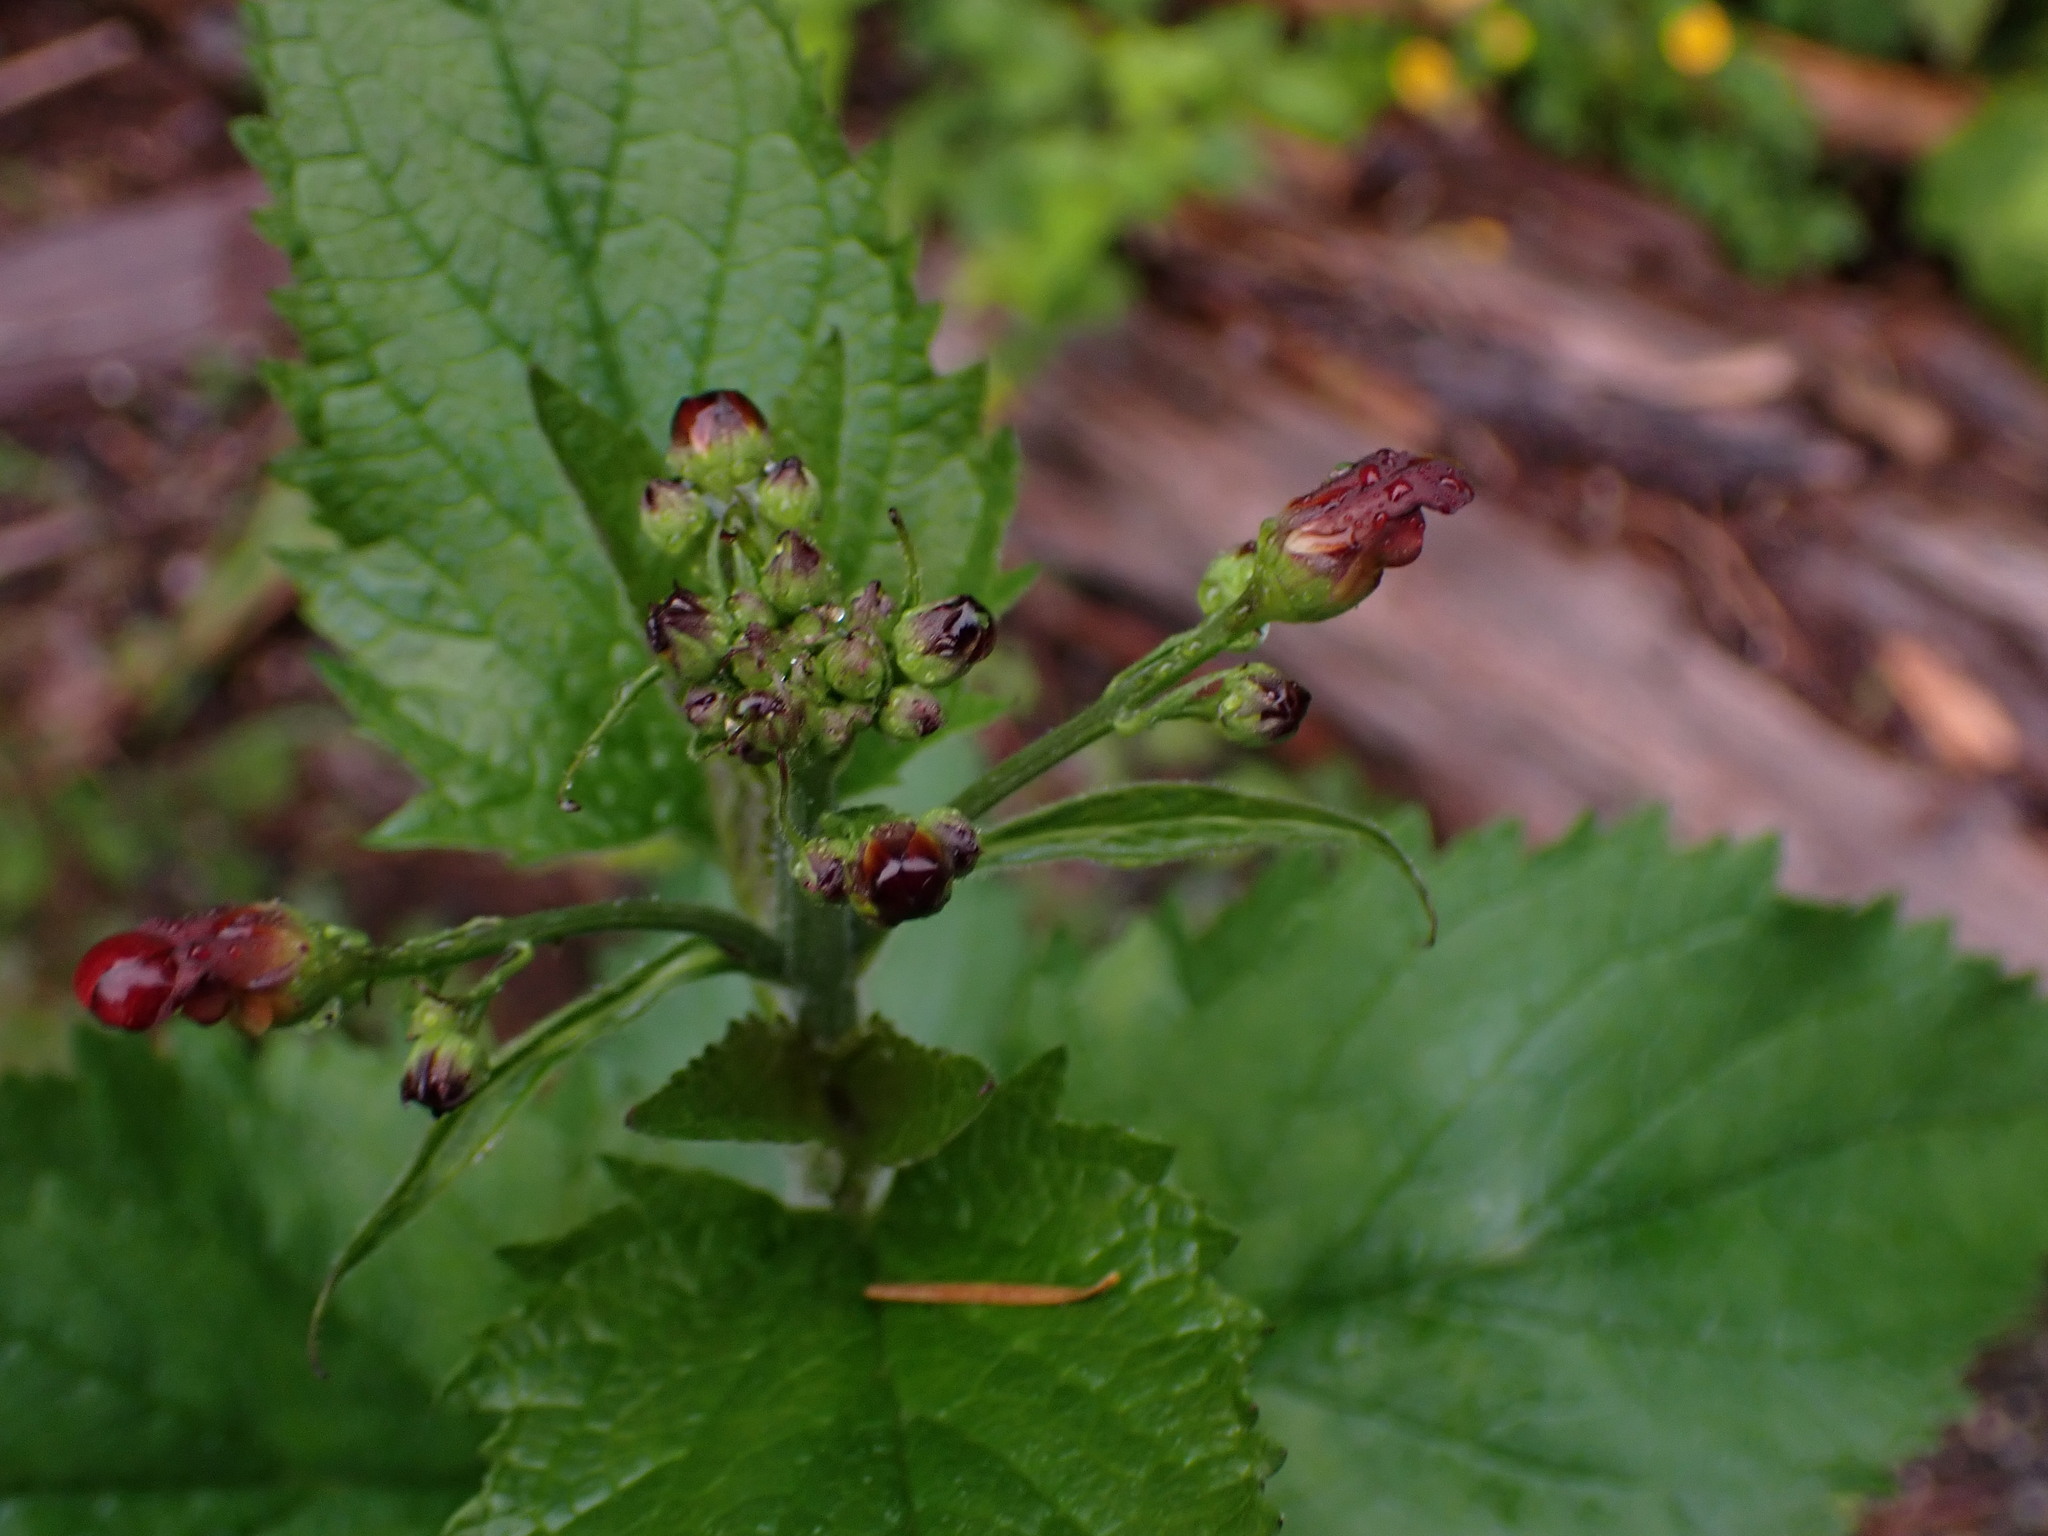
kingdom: Plantae
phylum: Tracheophyta
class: Magnoliopsida
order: Lamiales
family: Scrophulariaceae
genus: Scrophularia
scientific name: Scrophularia californica
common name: California figwort
